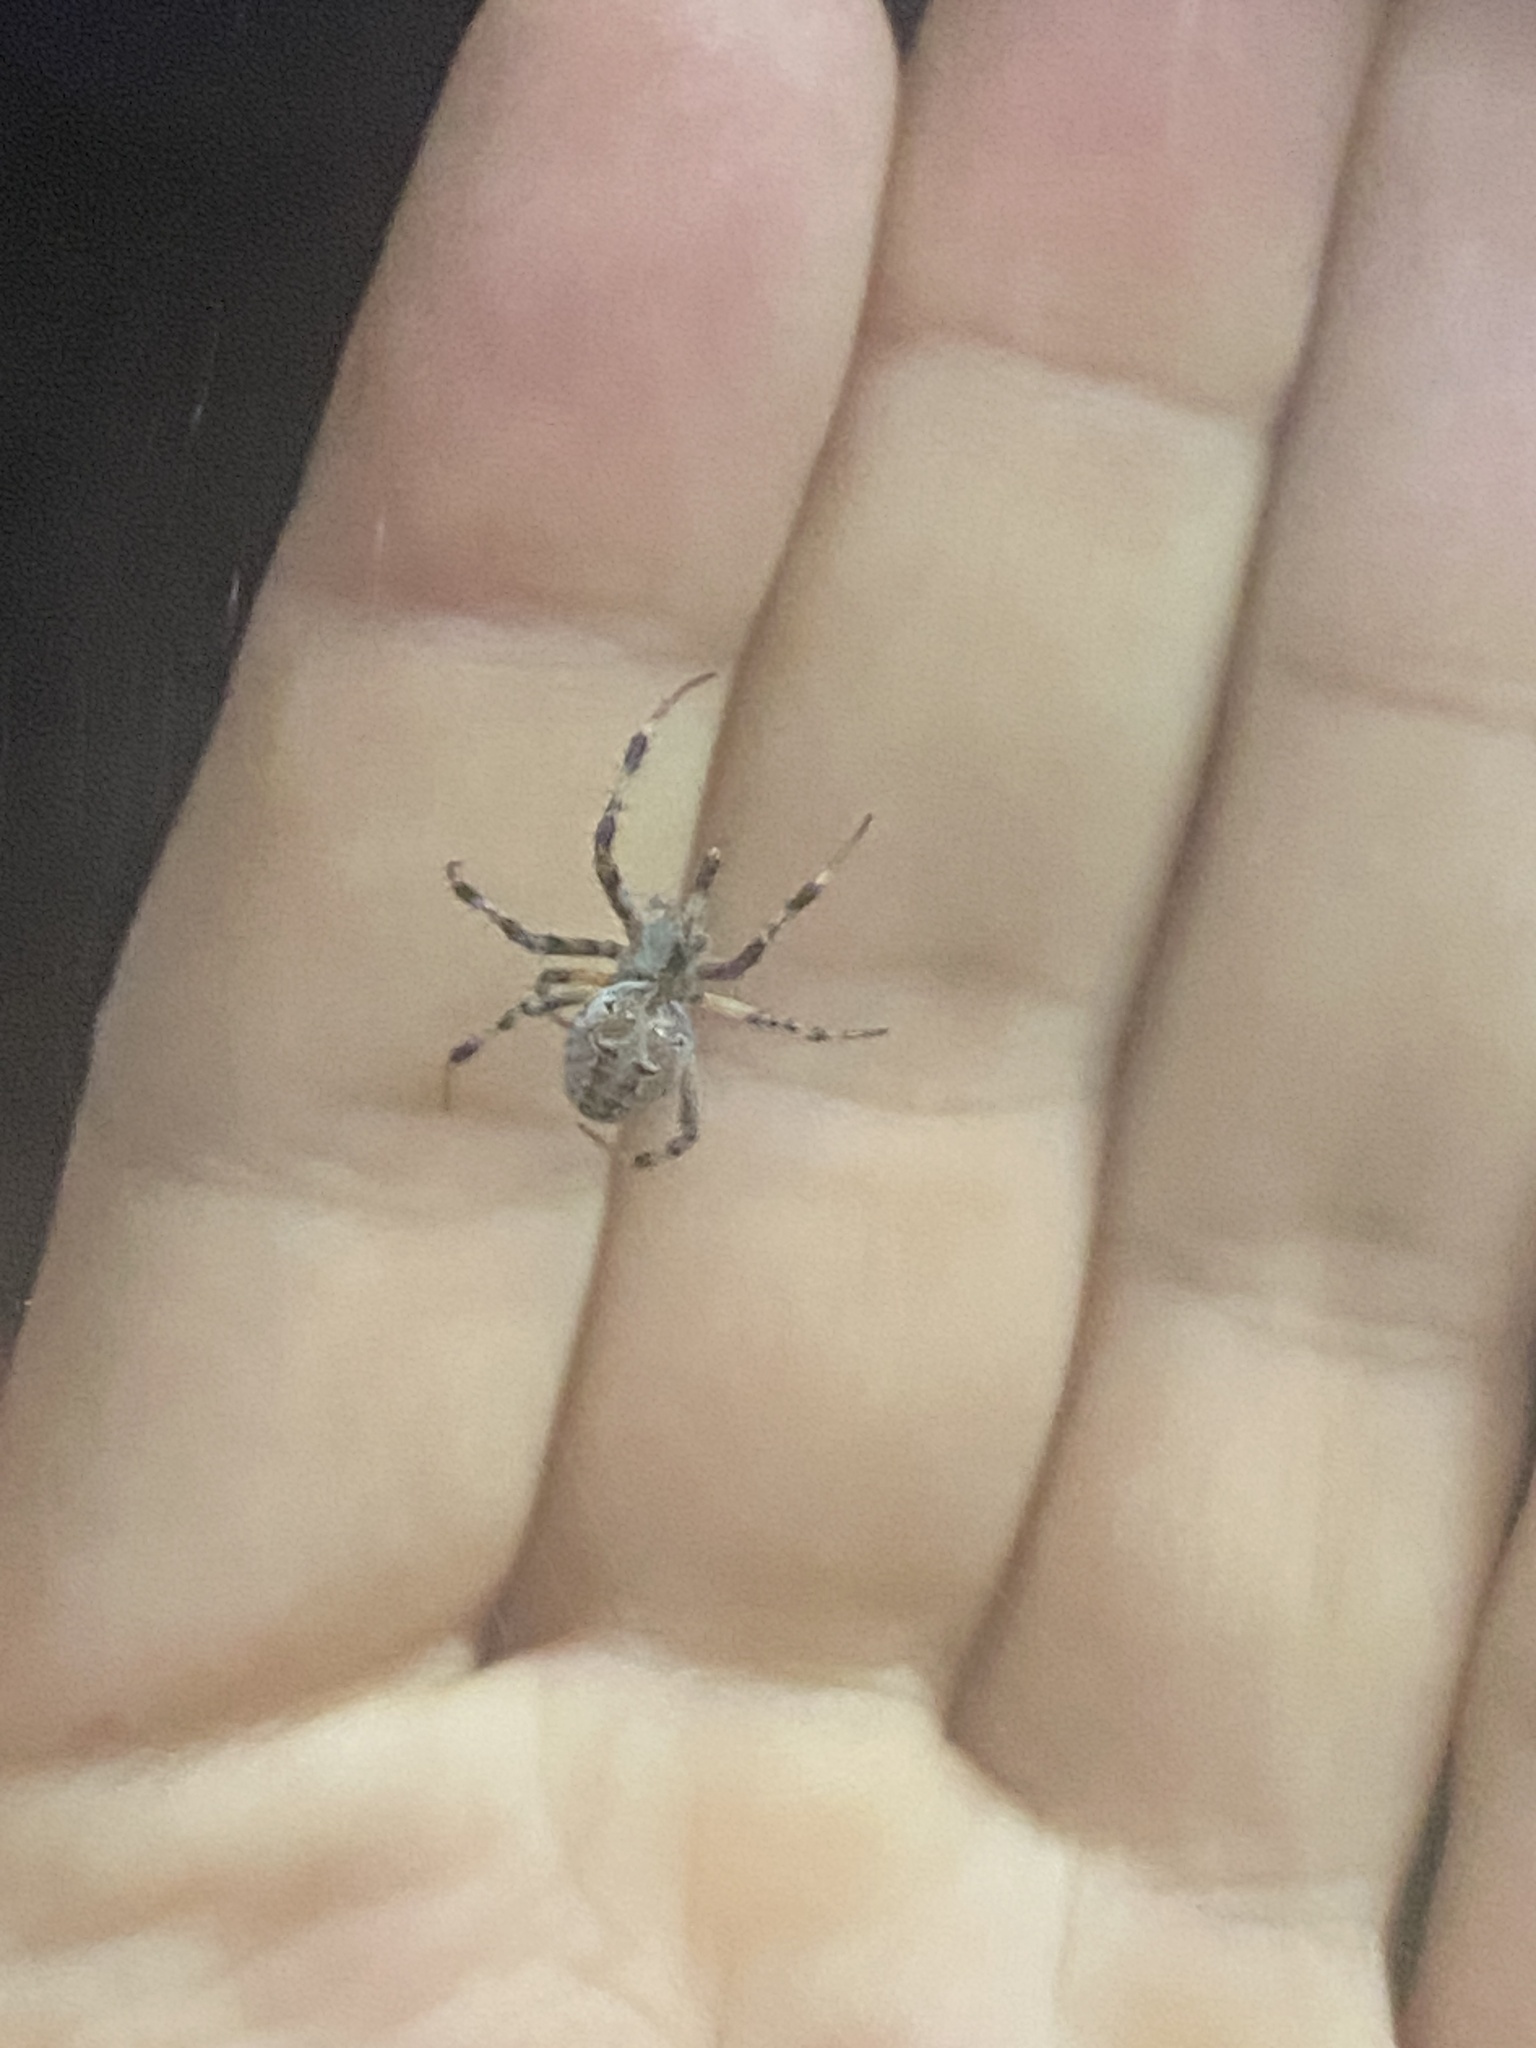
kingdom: Animalia
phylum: Arthropoda
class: Arachnida
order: Araneae
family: Araneidae
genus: Metepeira
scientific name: Metepeira
